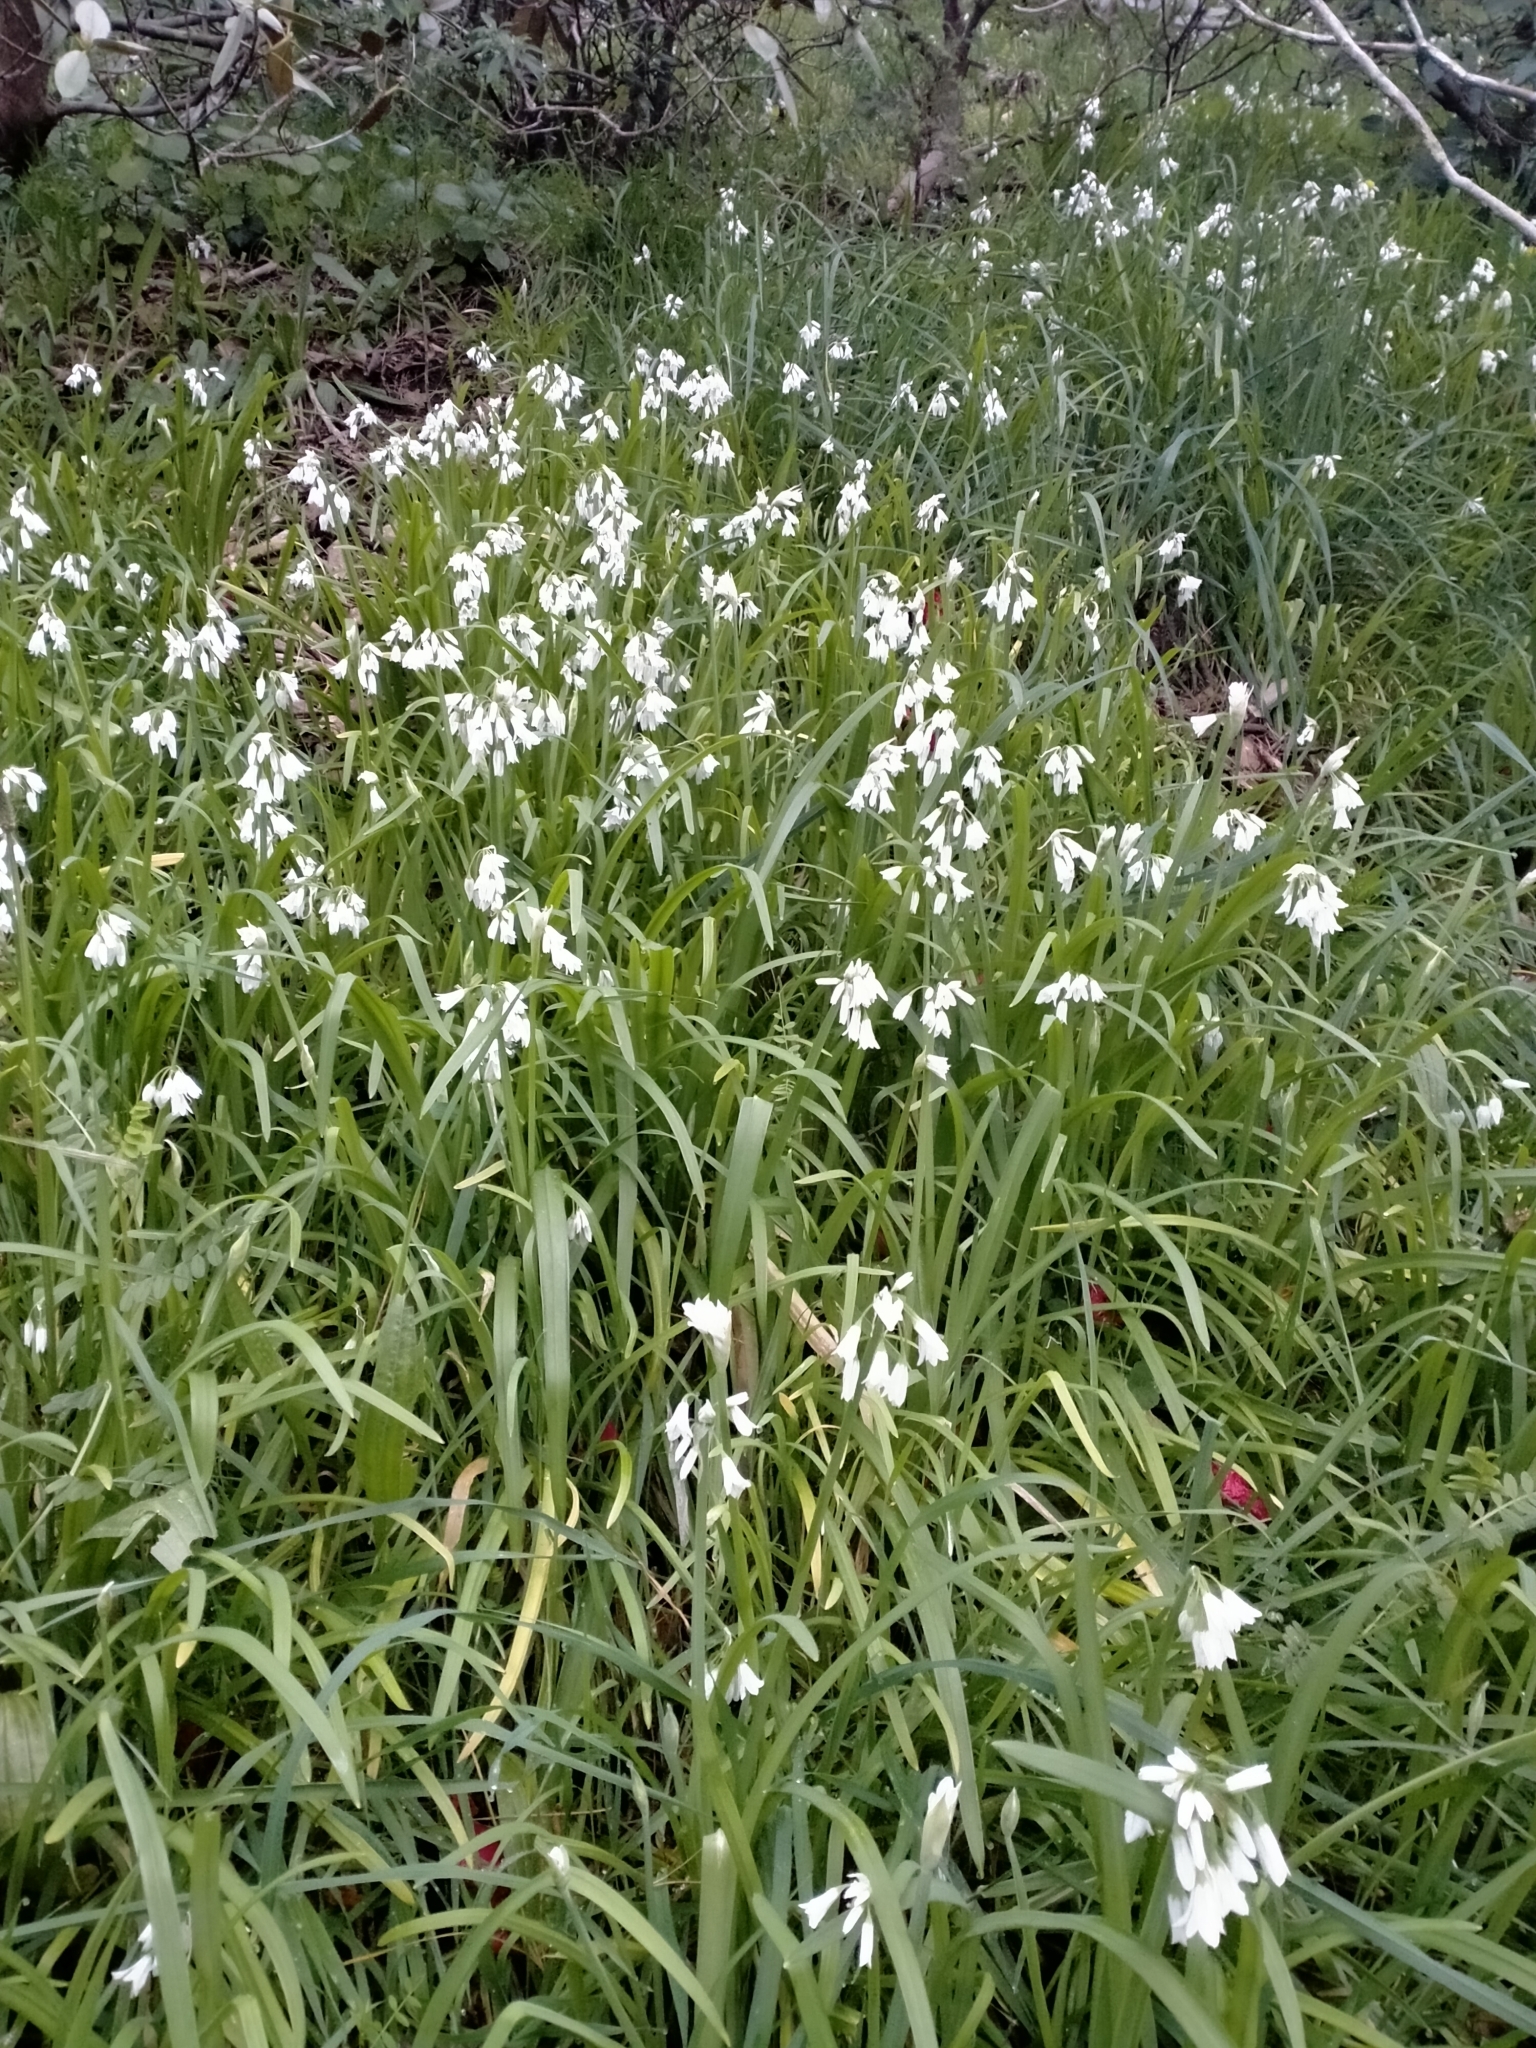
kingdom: Plantae
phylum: Tracheophyta
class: Liliopsida
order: Asparagales
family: Amaryllidaceae
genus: Allium
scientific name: Allium triquetrum
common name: Three-cornered garlic
